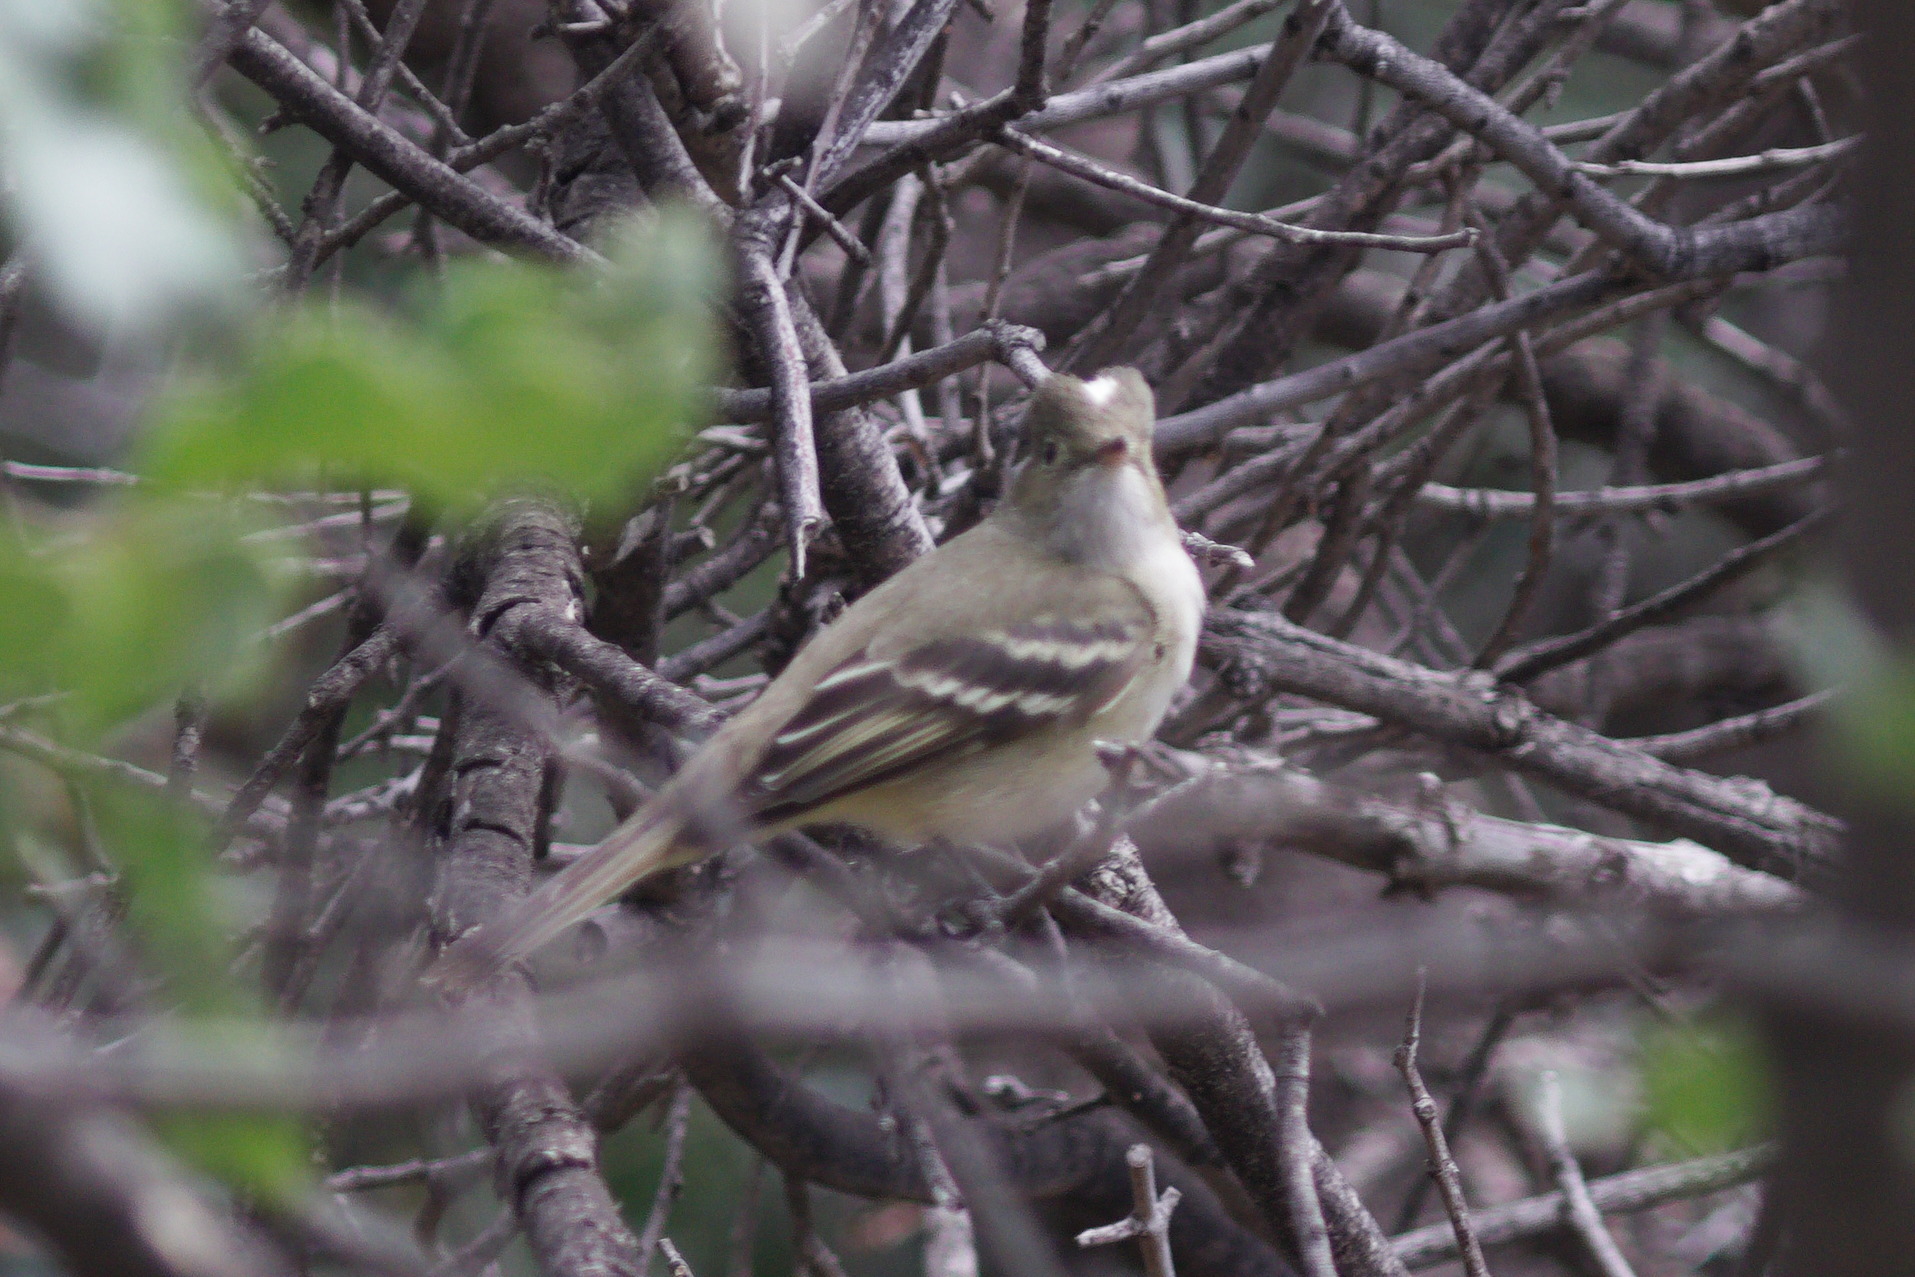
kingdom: Animalia
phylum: Chordata
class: Aves
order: Passeriformes
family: Tyrannidae
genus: Elaenia
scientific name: Elaenia albiceps
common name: White-crested elaenia
